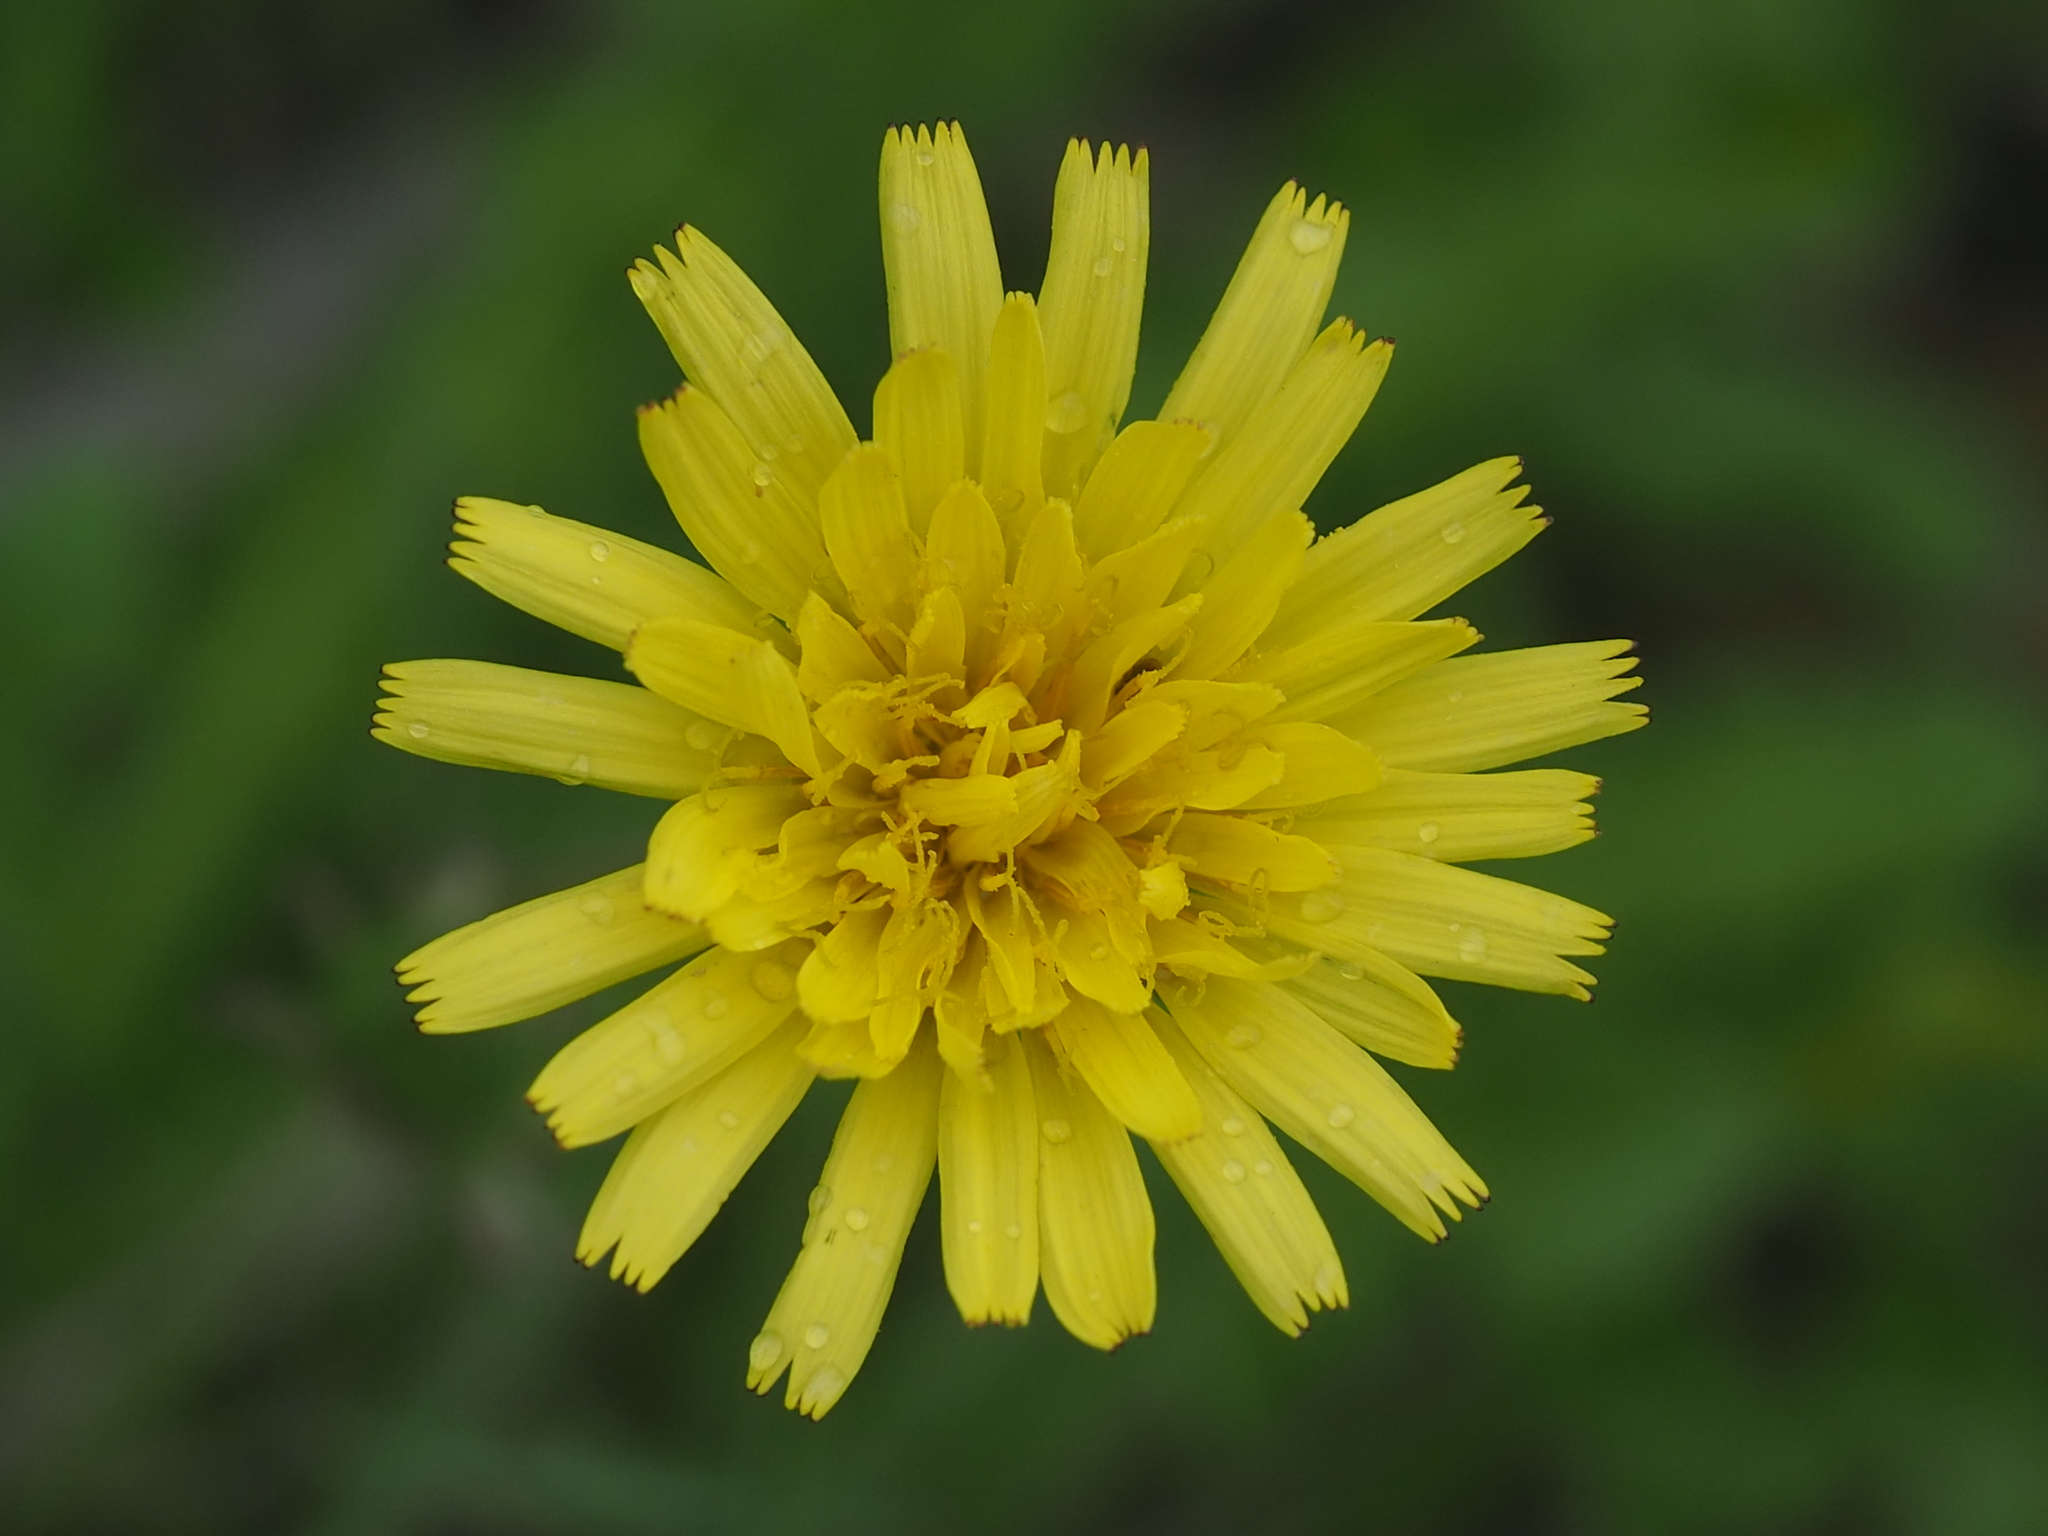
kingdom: Plantae
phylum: Tracheophyta
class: Magnoliopsida
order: Asterales
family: Asteraceae
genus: Taraxacum
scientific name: Taraxacum formosanum
